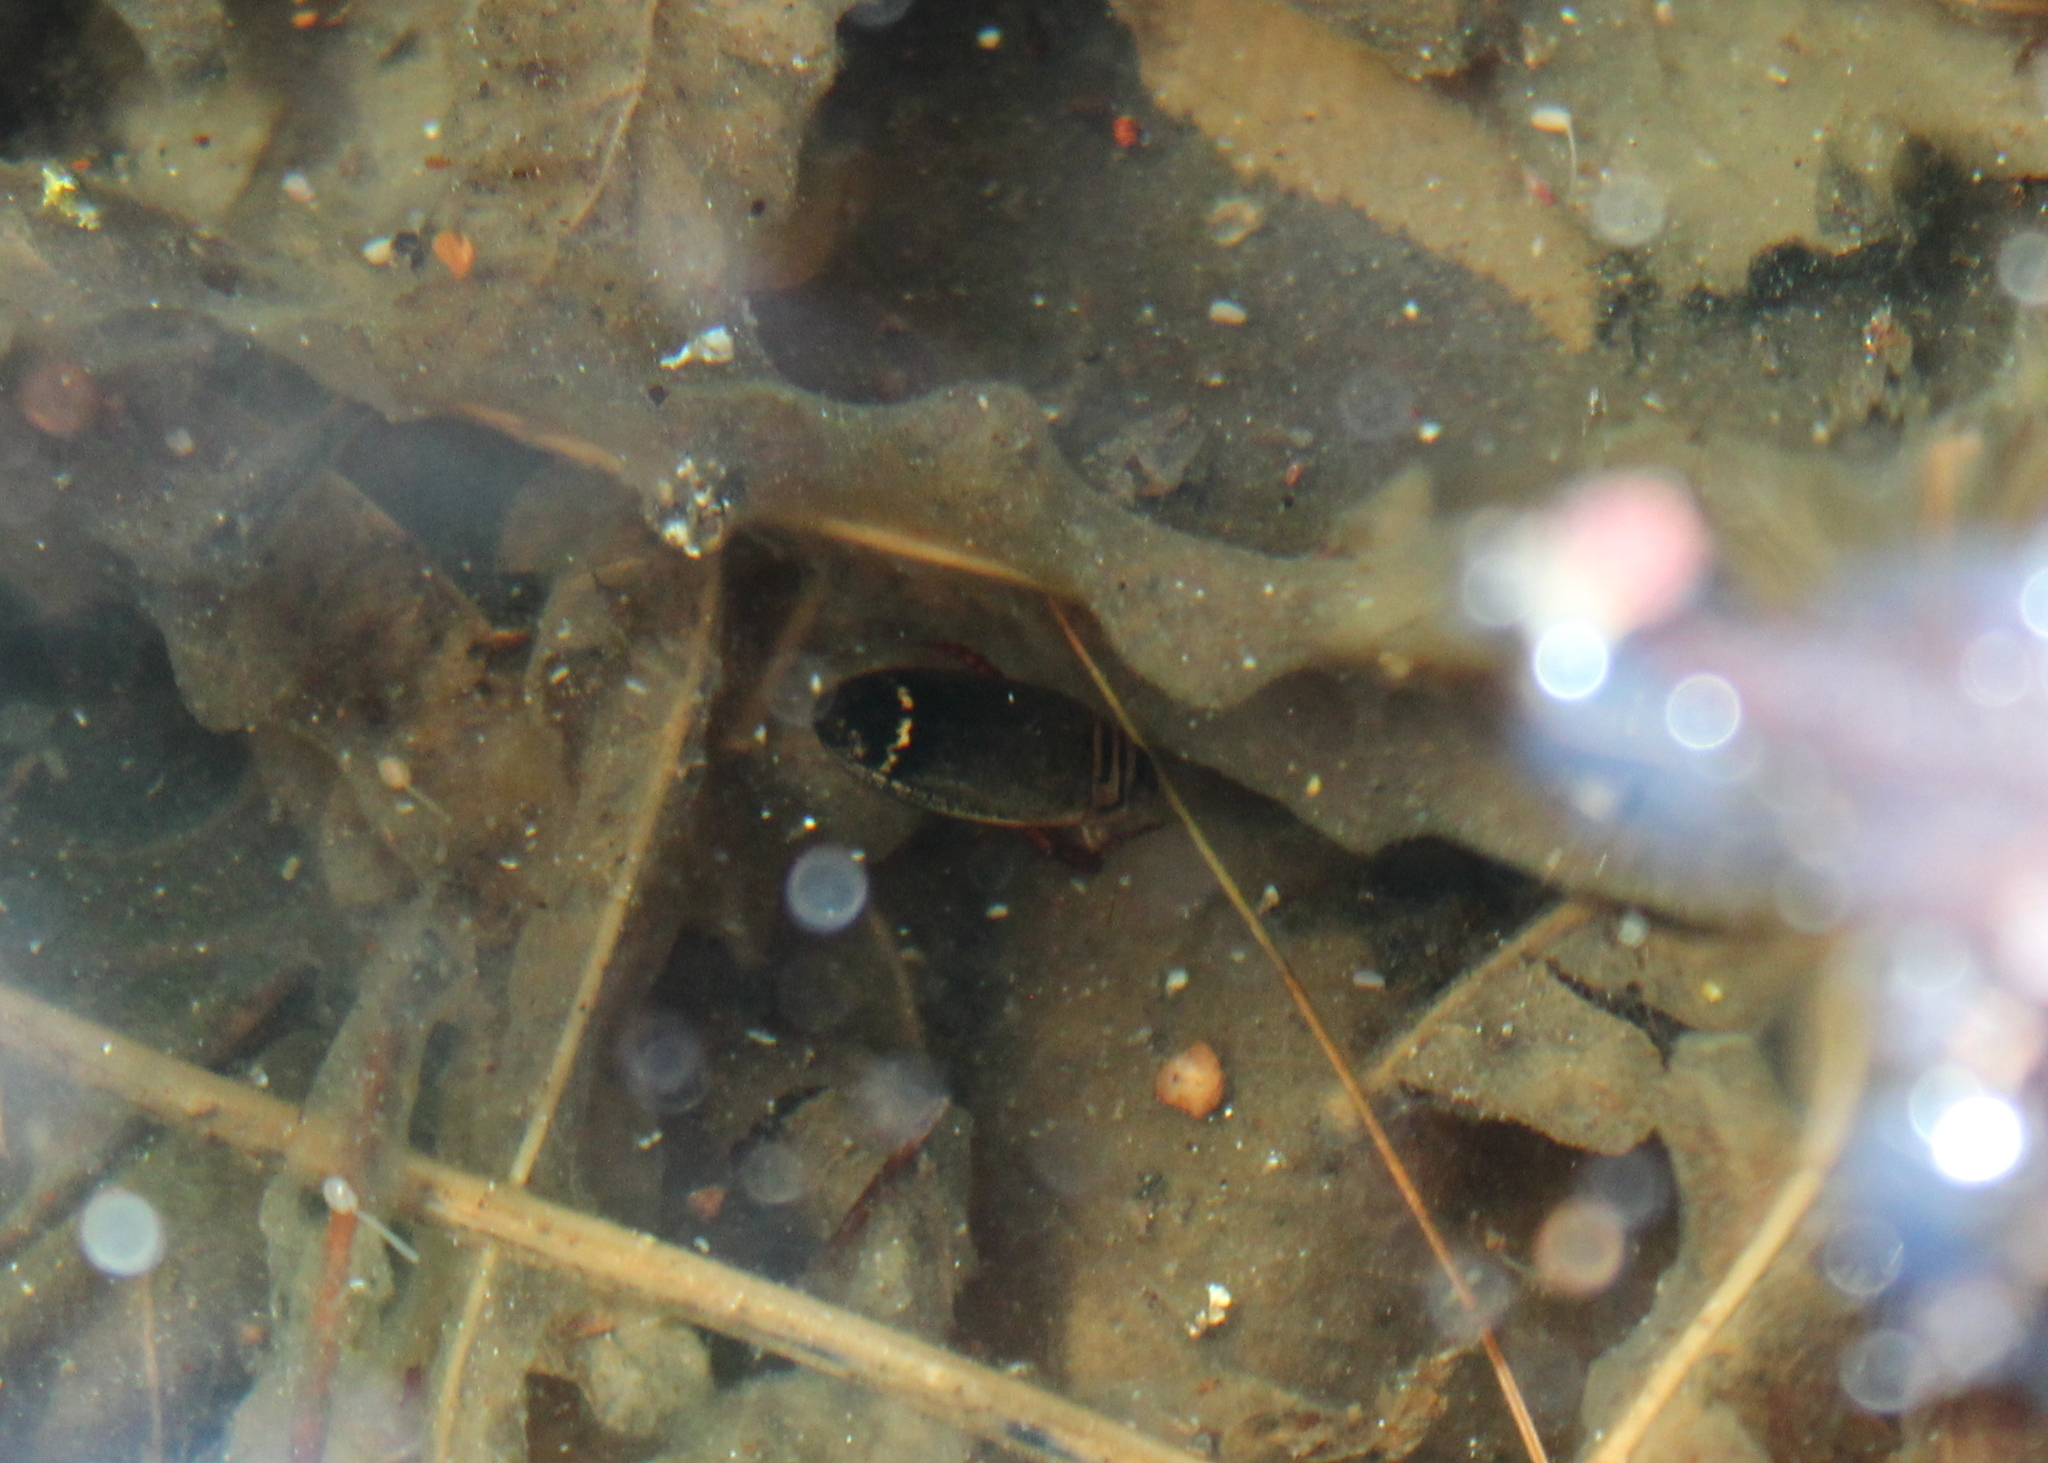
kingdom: Animalia
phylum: Arthropoda
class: Insecta
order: Coleoptera
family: Dytiscidae
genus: Acilius
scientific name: Acilius
